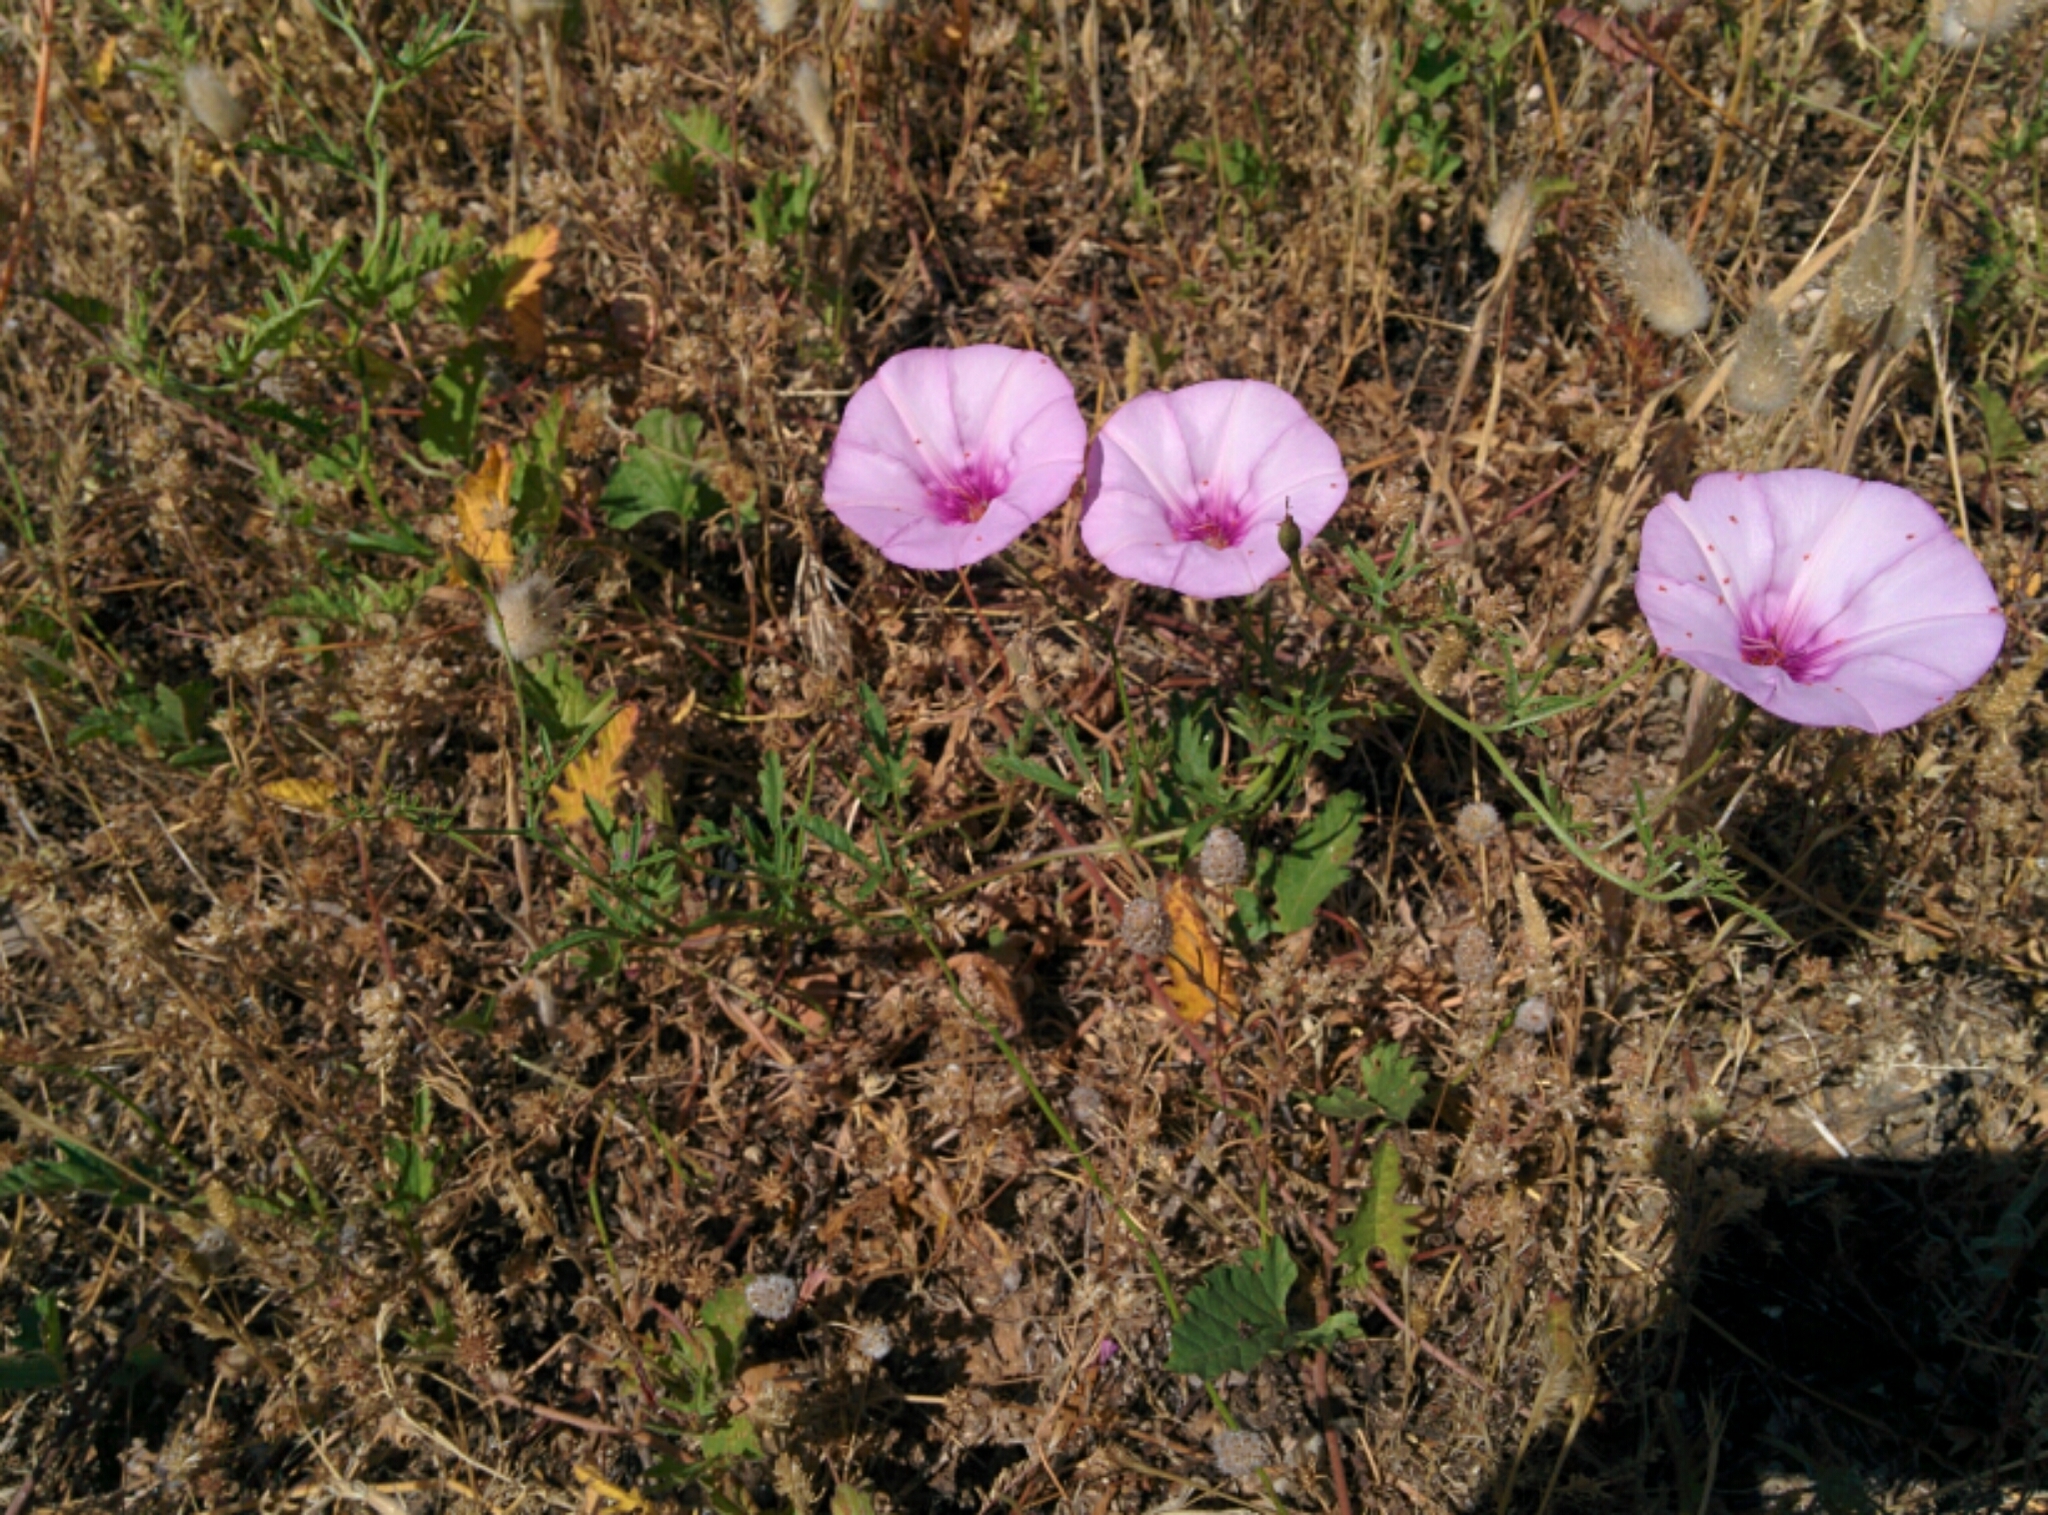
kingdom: Plantae
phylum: Tracheophyta
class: Magnoliopsida
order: Solanales
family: Convolvulaceae
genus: Convolvulus
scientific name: Convolvulus althaeoides
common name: Mallow bindweed
